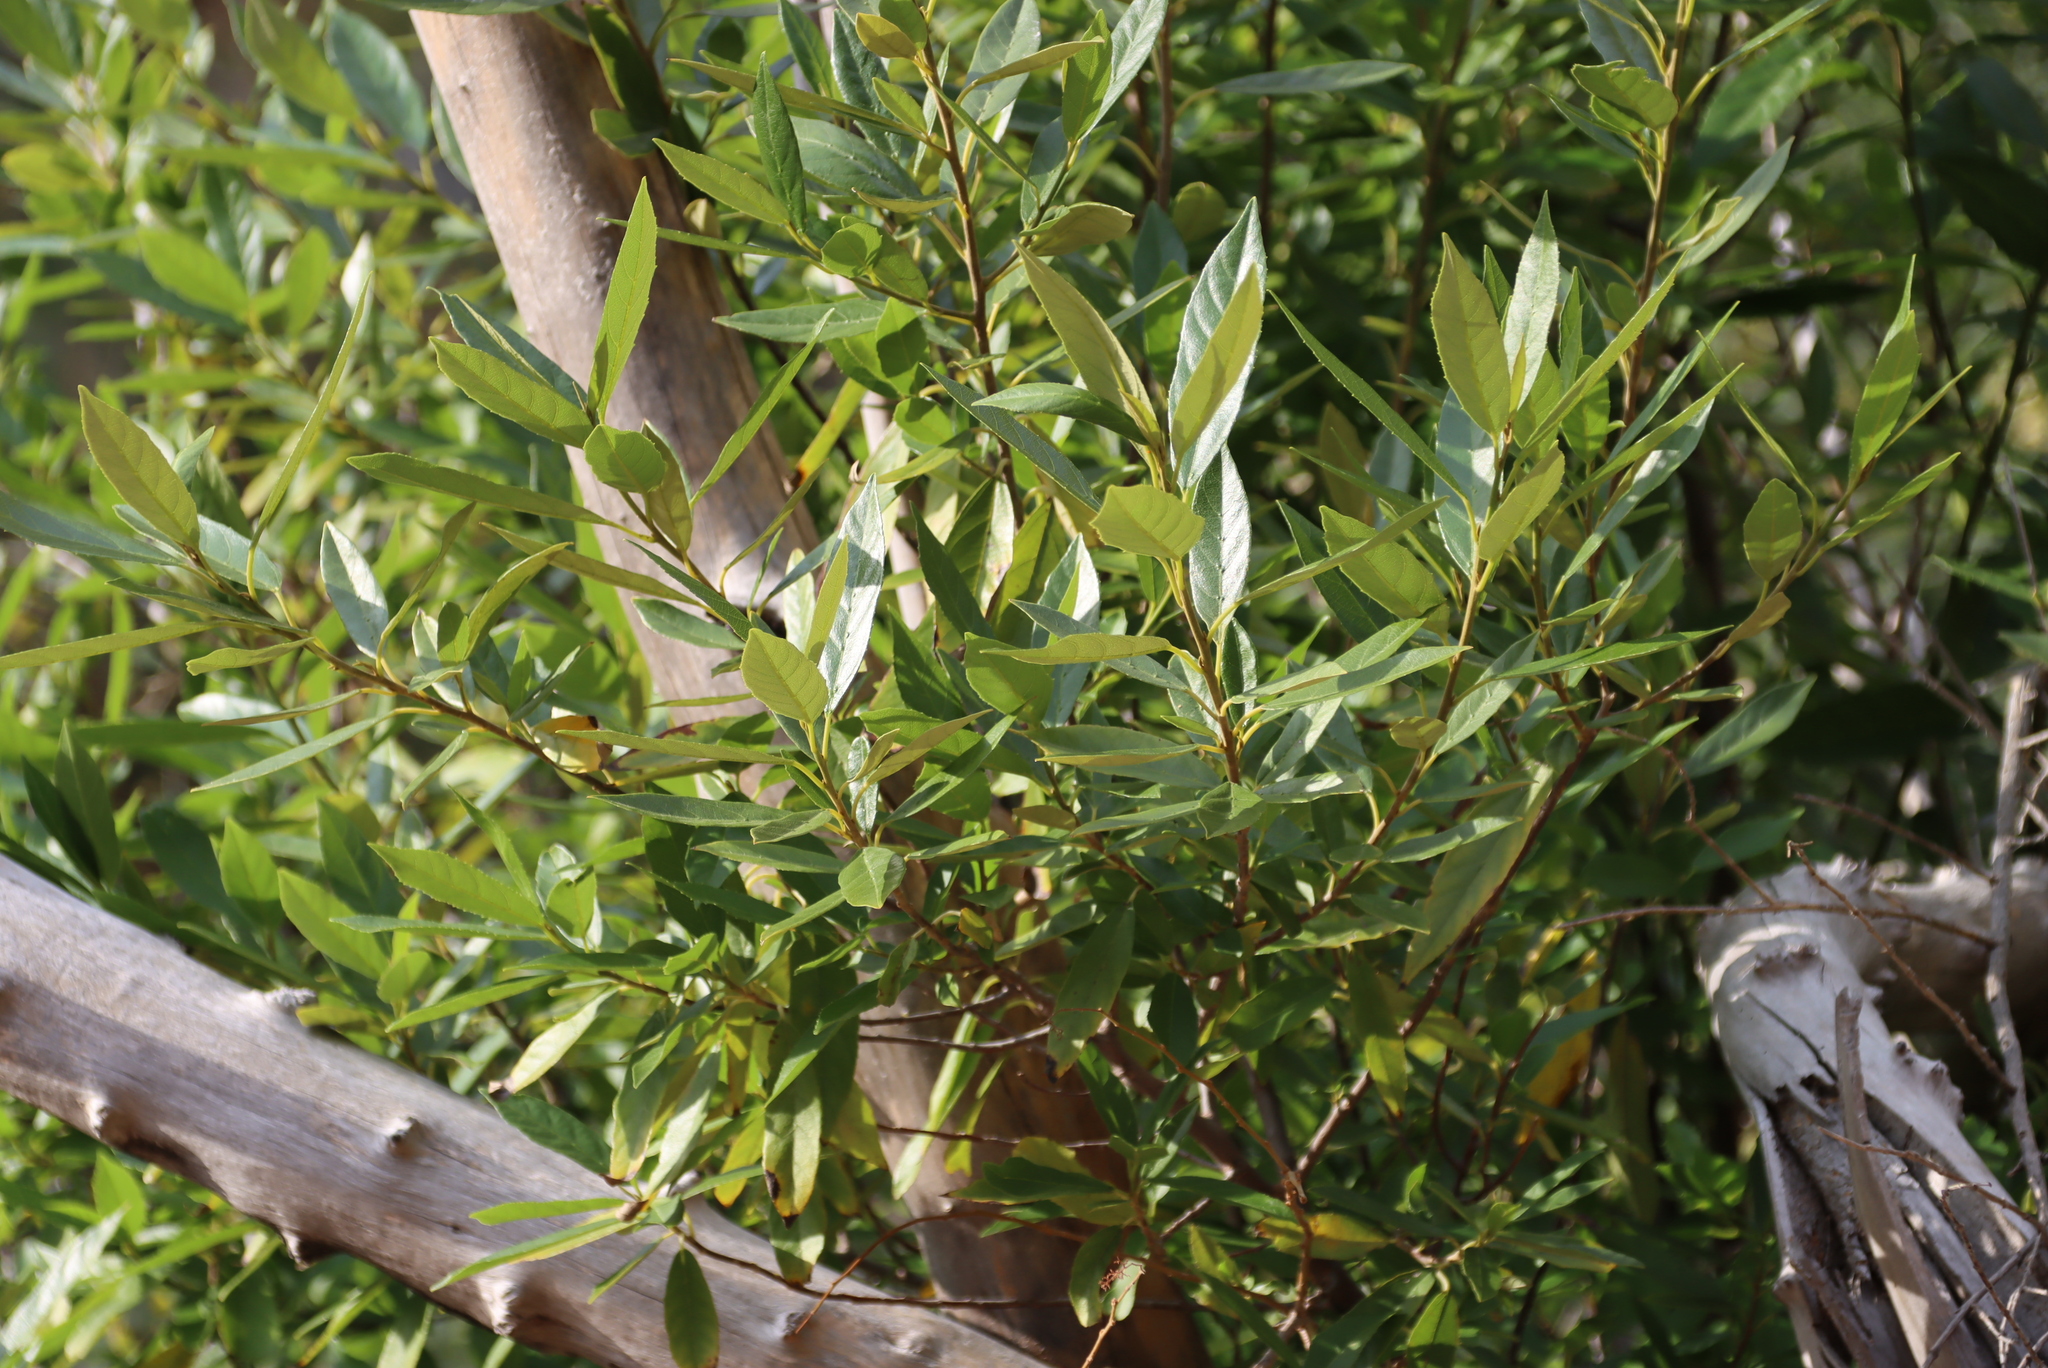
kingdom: Plantae
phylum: Tracheophyta
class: Magnoliopsida
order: Malpighiales
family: Achariaceae
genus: Kiggelaria
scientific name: Kiggelaria africana
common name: Wild peach
